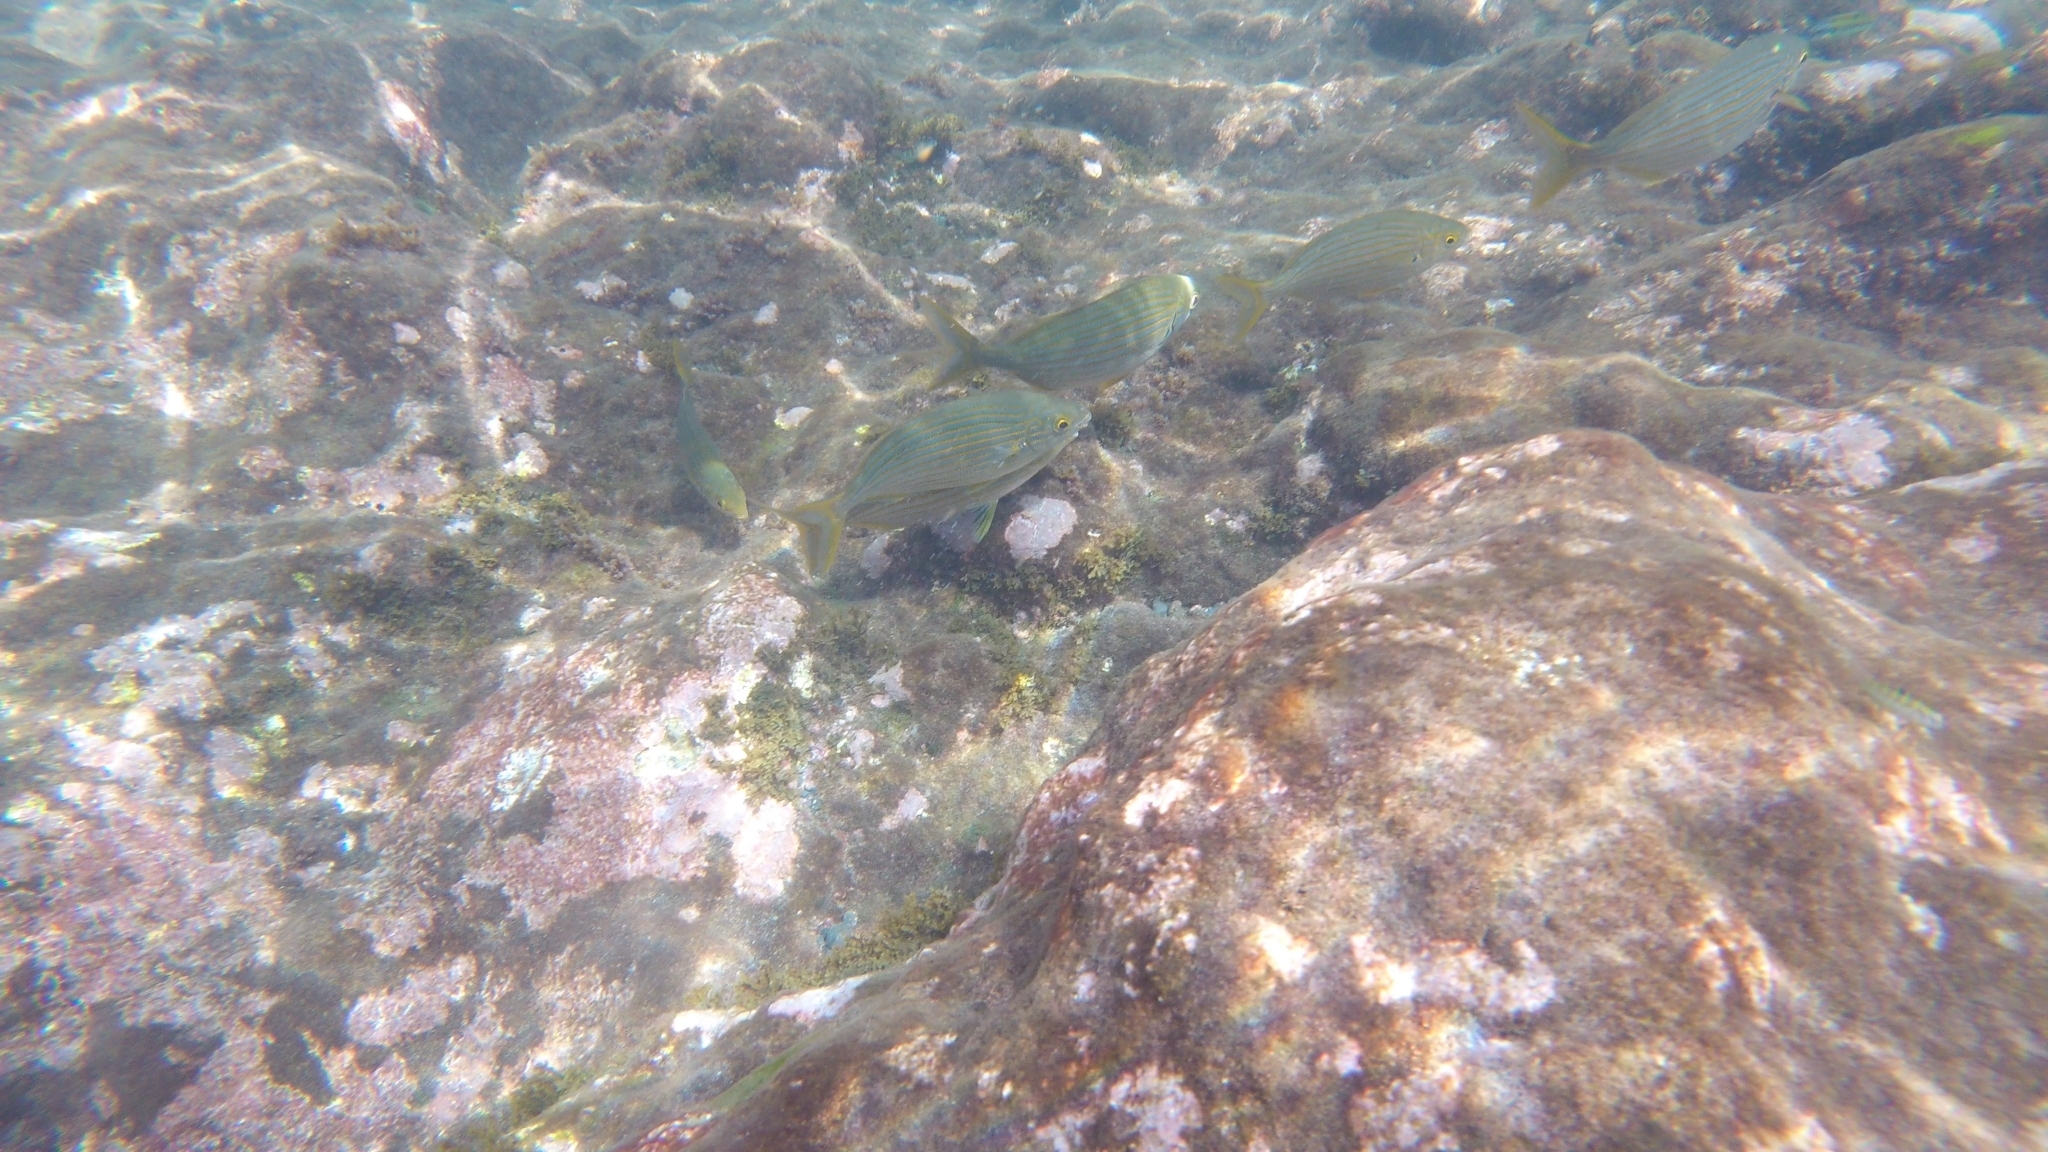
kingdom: Animalia
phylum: Chordata
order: Perciformes
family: Sparidae
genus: Sarpa
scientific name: Sarpa salpa
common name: Salema
